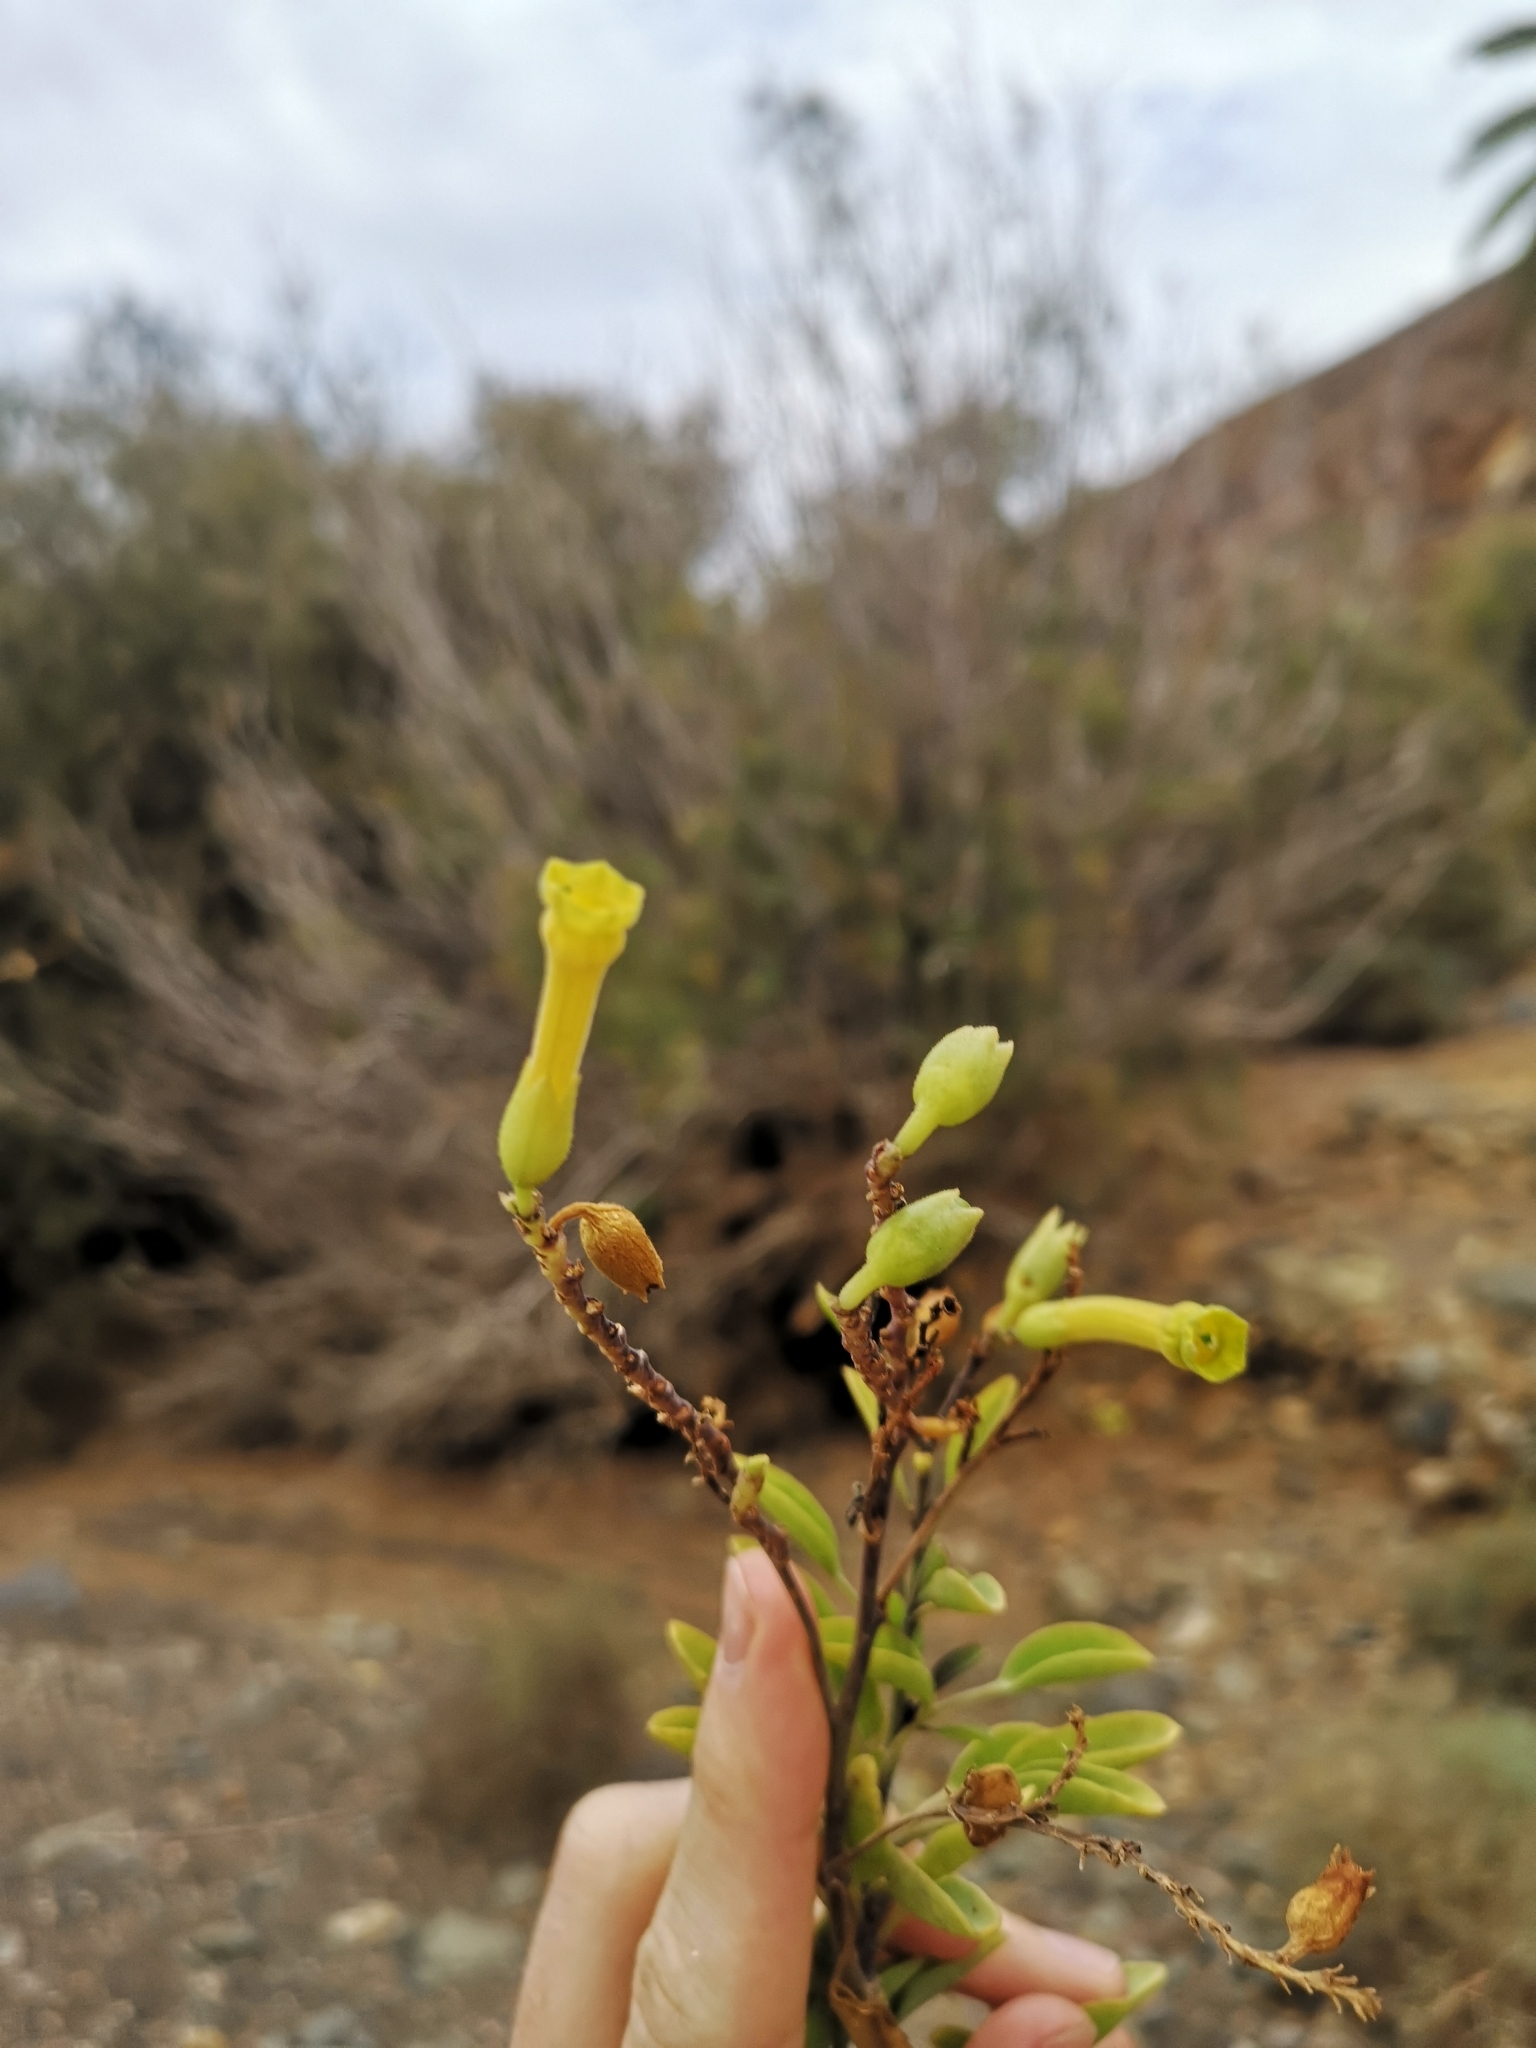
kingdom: Plantae
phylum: Tracheophyta
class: Magnoliopsida
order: Solanales
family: Solanaceae
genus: Nicotiana
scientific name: Nicotiana glauca
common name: Tree tobacco
